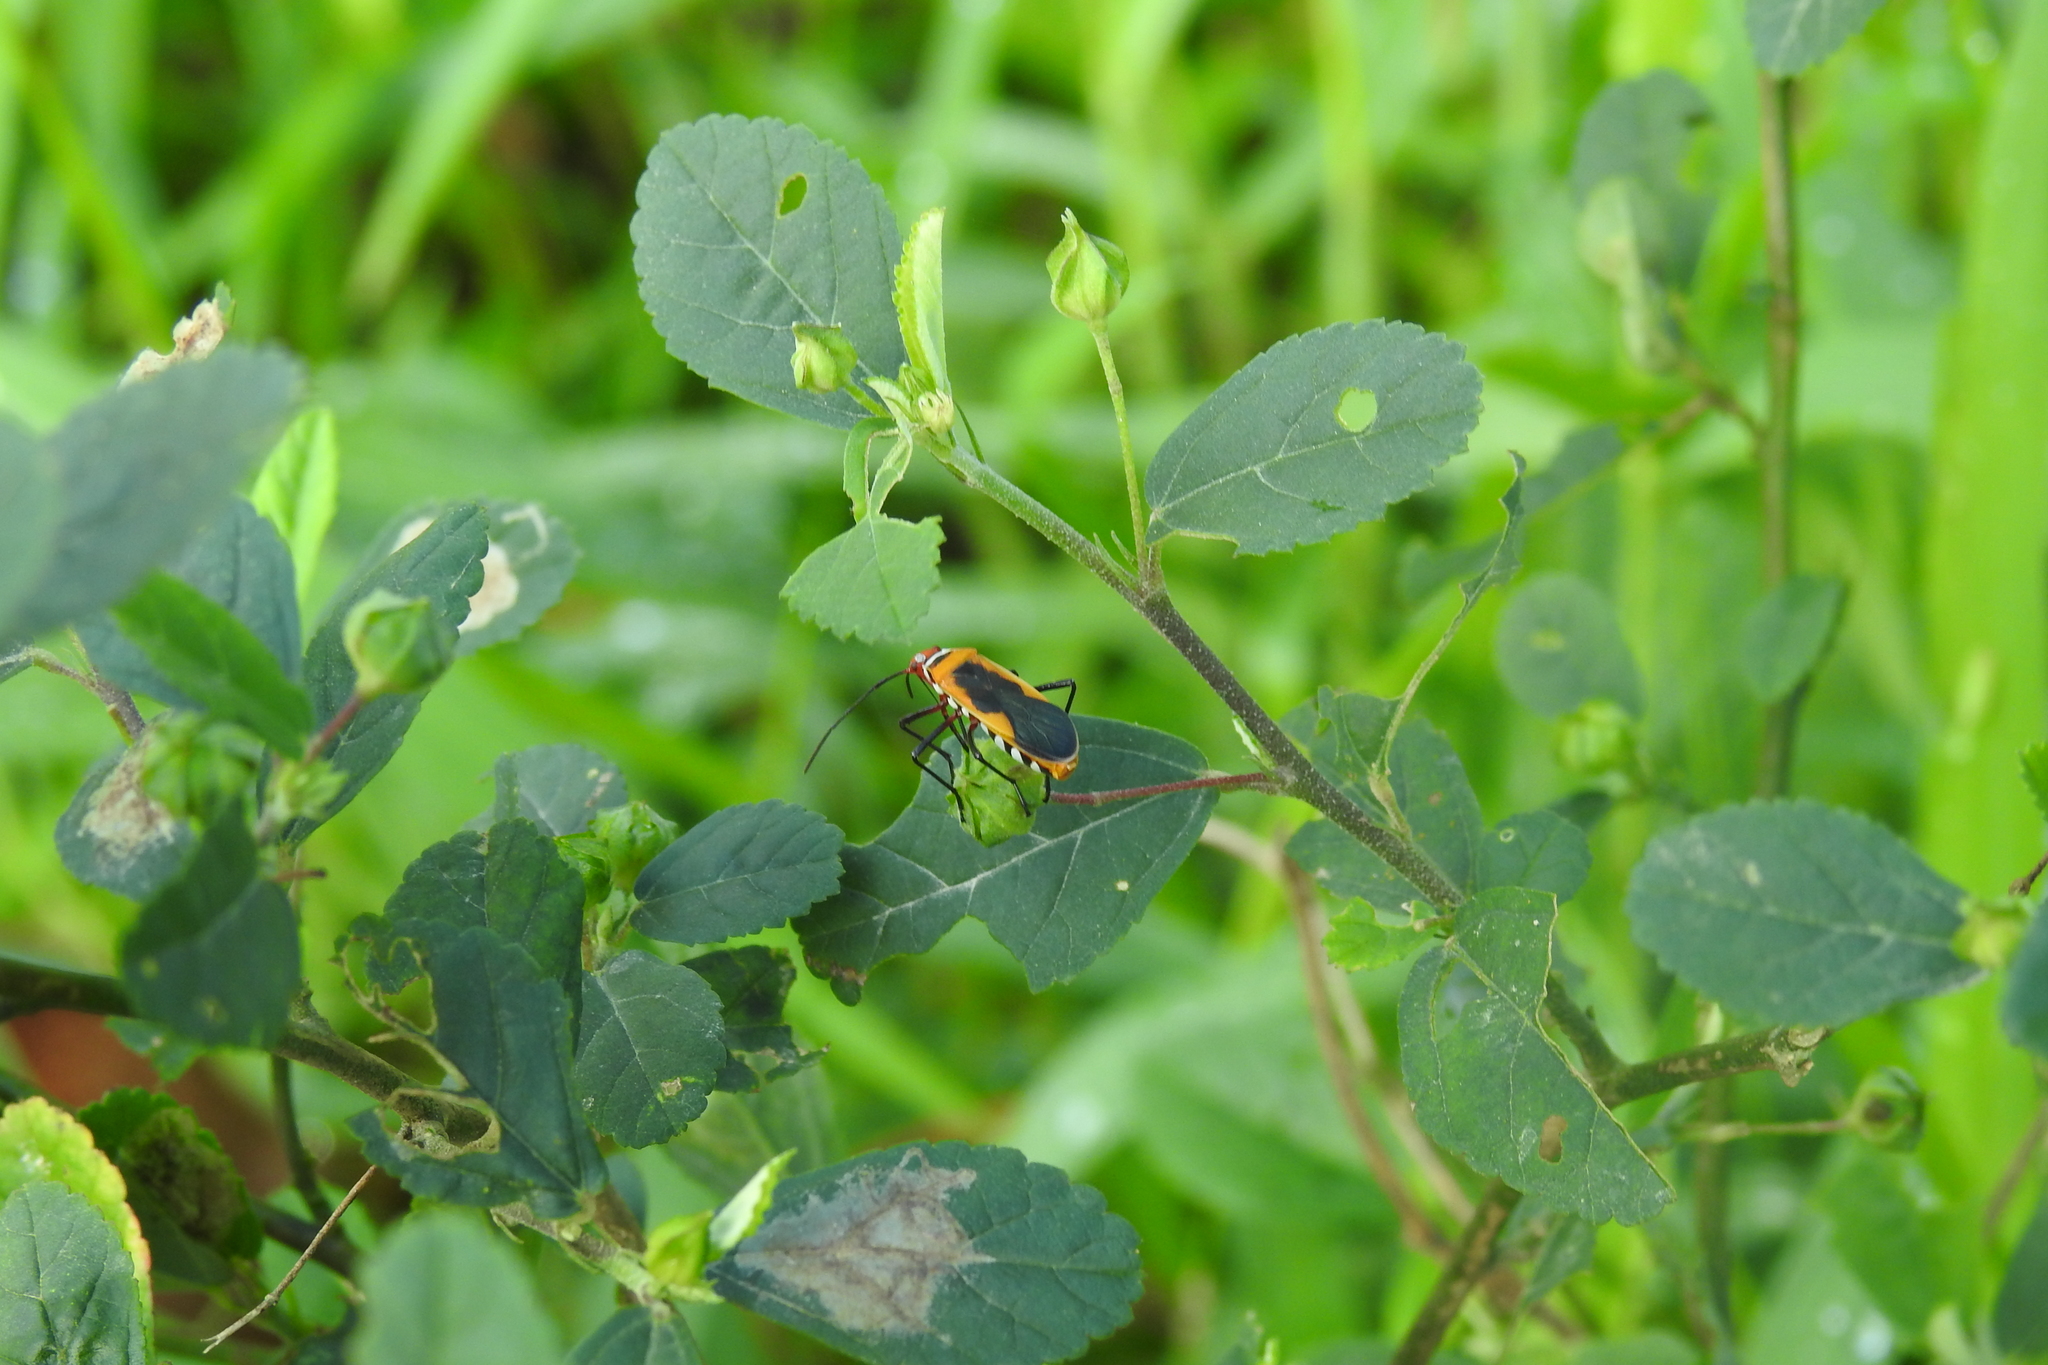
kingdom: Animalia
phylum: Arthropoda
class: Insecta
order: Hemiptera
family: Pyrrhocoridae
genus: Dysdercus
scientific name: Dysdercus poecilus
